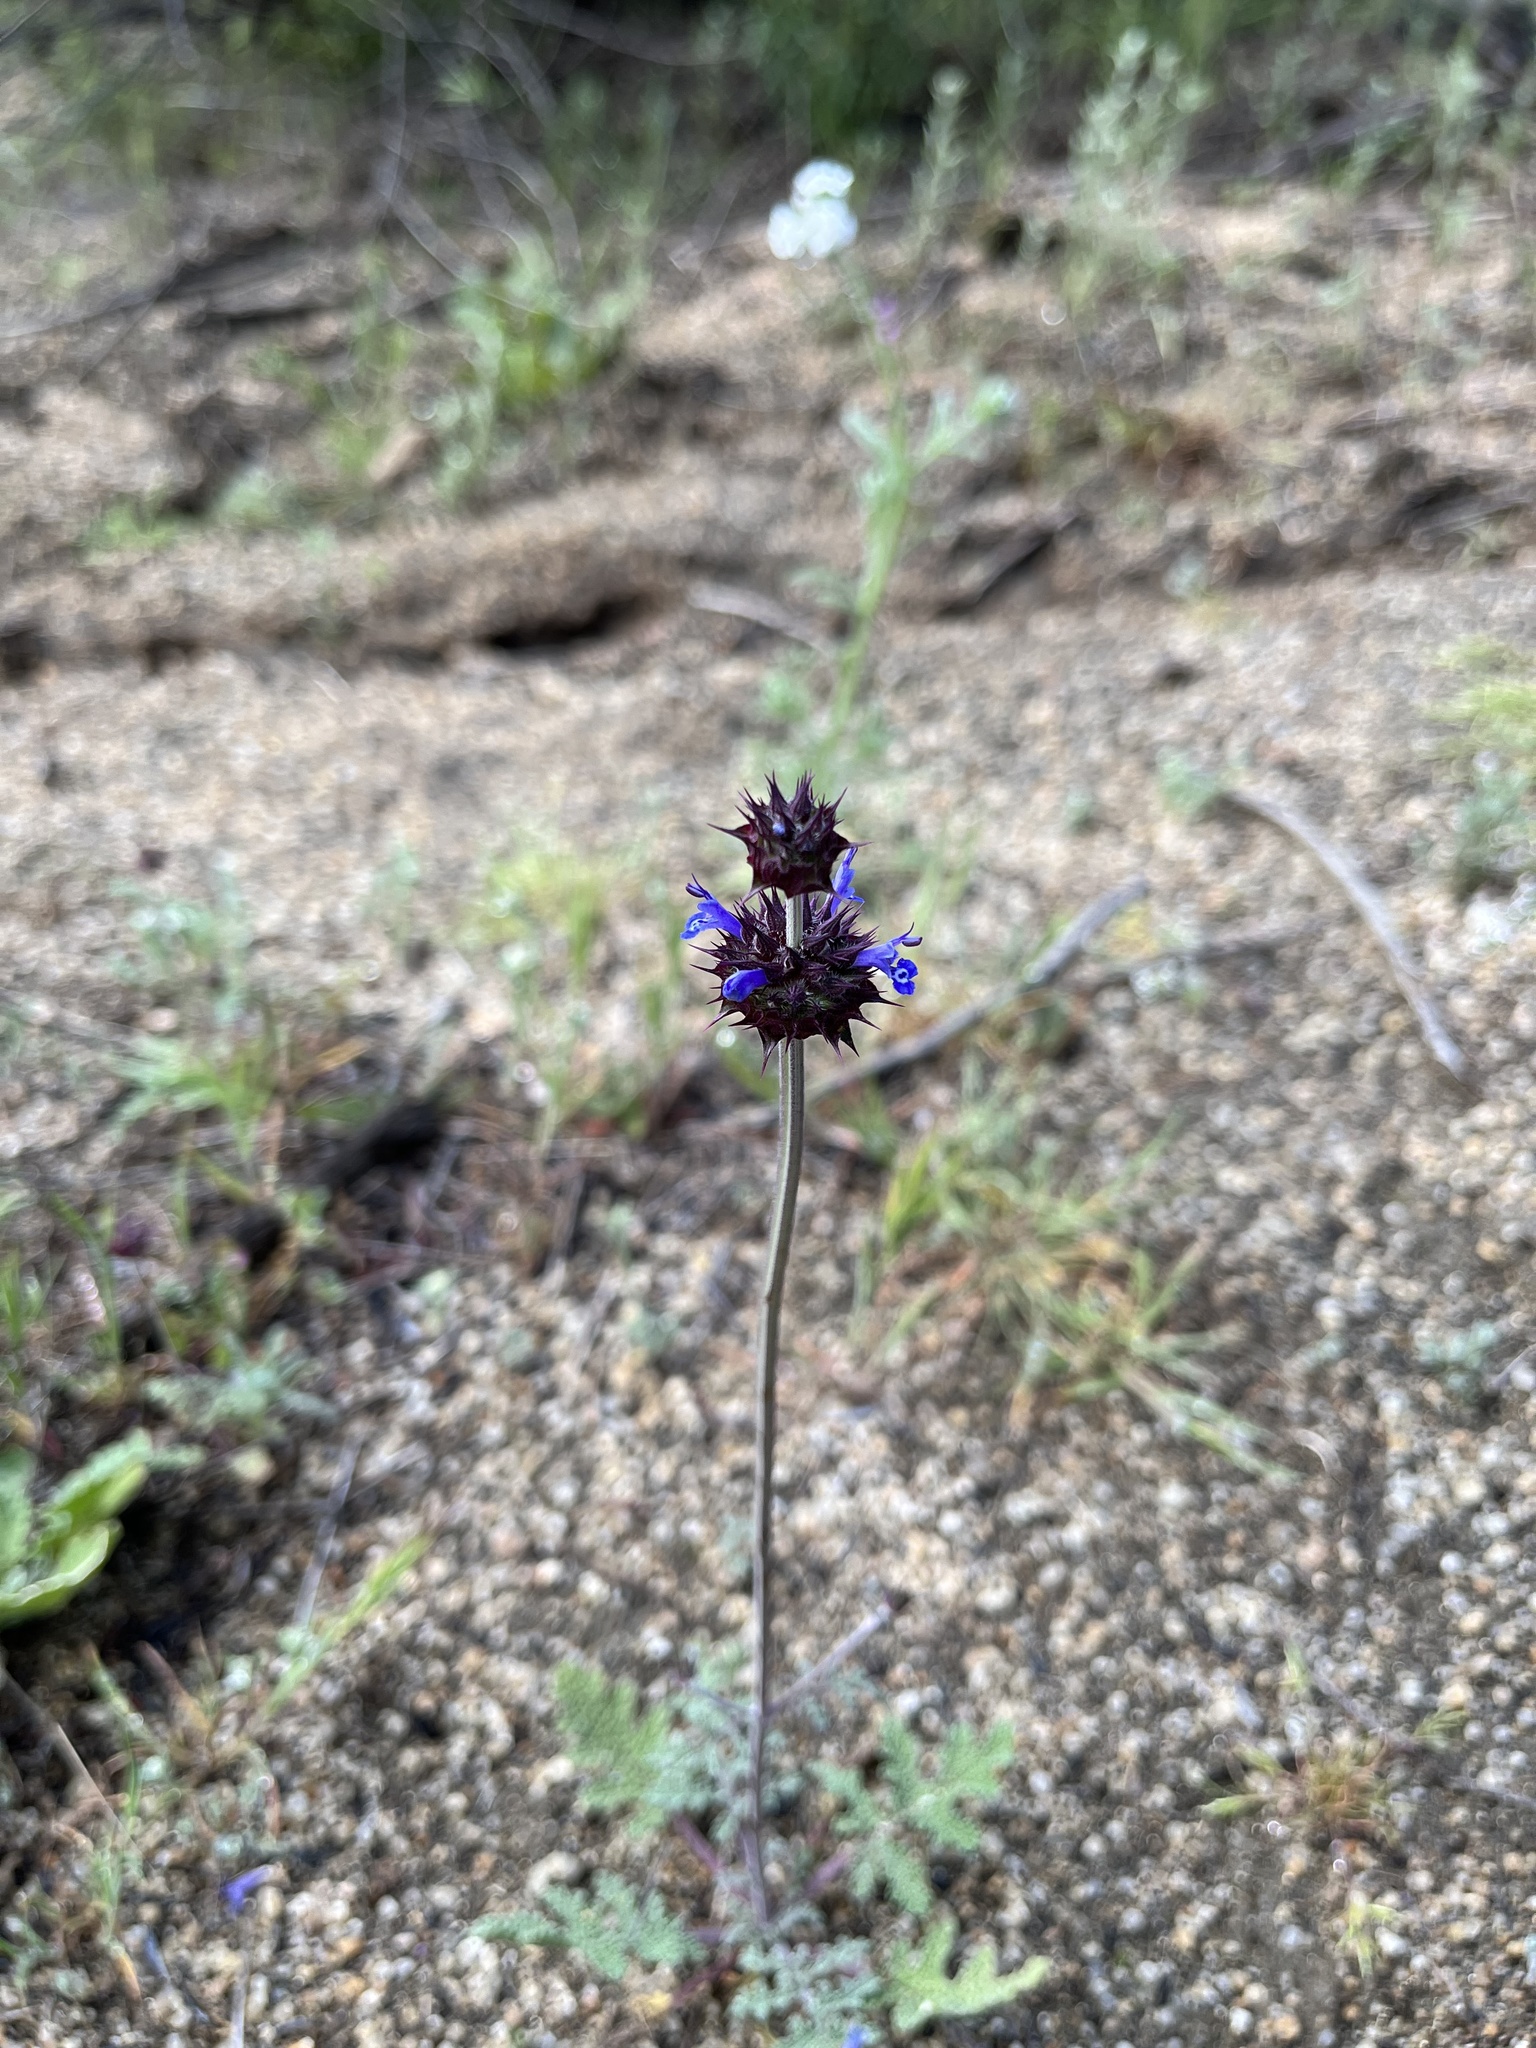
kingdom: Plantae
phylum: Tracheophyta
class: Magnoliopsida
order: Lamiales
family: Lamiaceae
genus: Salvia
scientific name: Salvia columbariae
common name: Chia
